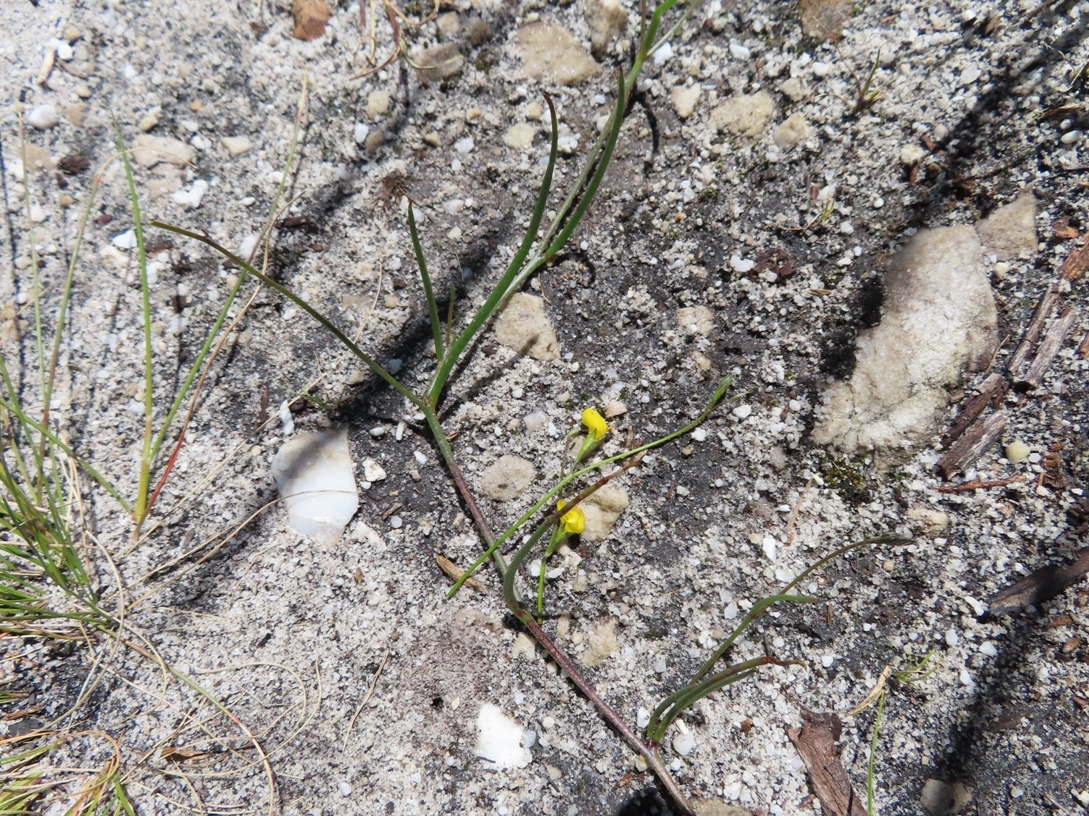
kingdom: Plantae
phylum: Tracheophyta
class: Magnoliopsida
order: Fabales
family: Fabaceae
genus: Lebeckia
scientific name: Lebeckia wrightii
